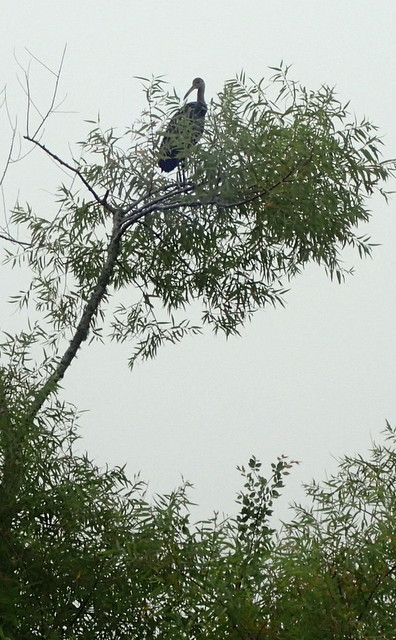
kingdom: Animalia
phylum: Chordata
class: Aves
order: Gruiformes
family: Aramidae
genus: Aramus
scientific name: Aramus guarauna
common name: Limpkin
